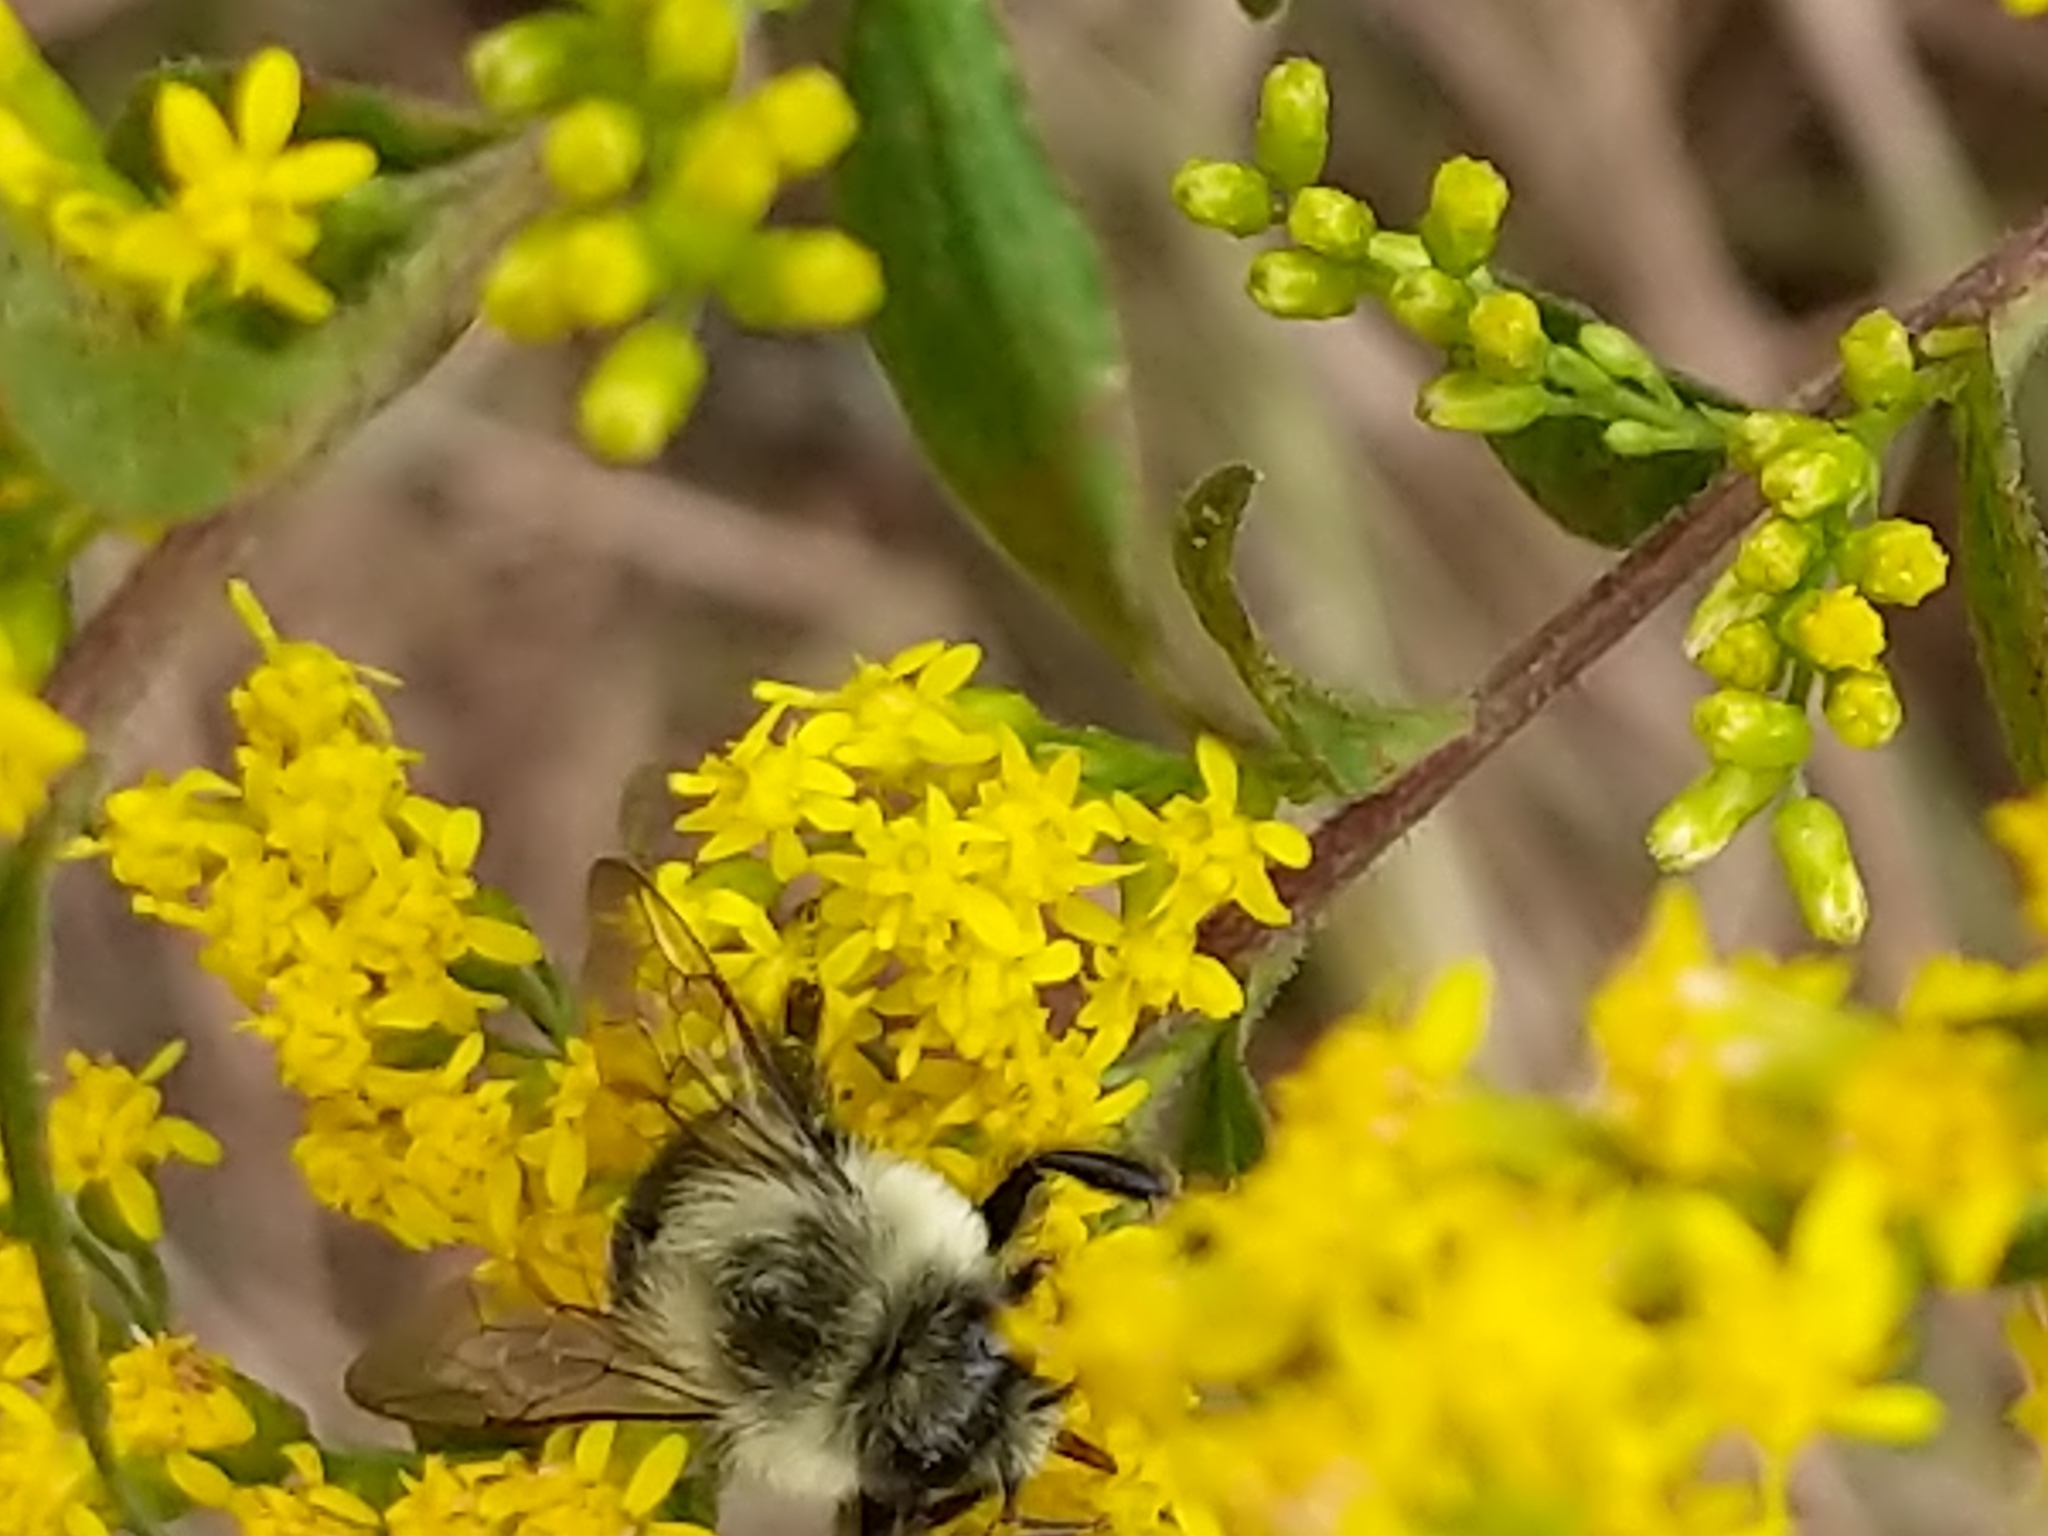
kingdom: Animalia
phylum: Arthropoda
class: Insecta
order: Hymenoptera
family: Apidae
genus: Bombus
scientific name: Bombus impatiens
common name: Common eastern bumble bee
